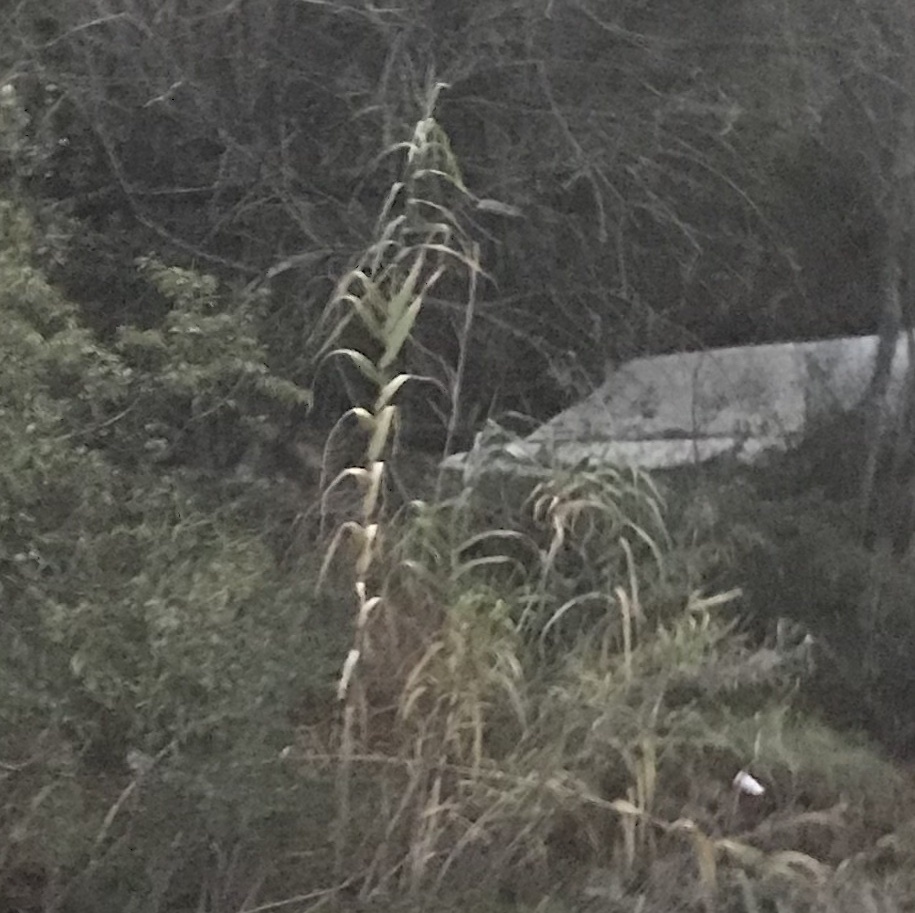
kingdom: Plantae
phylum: Tracheophyta
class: Liliopsida
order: Poales
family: Poaceae
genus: Arundo
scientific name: Arundo donax
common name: Giant reed
